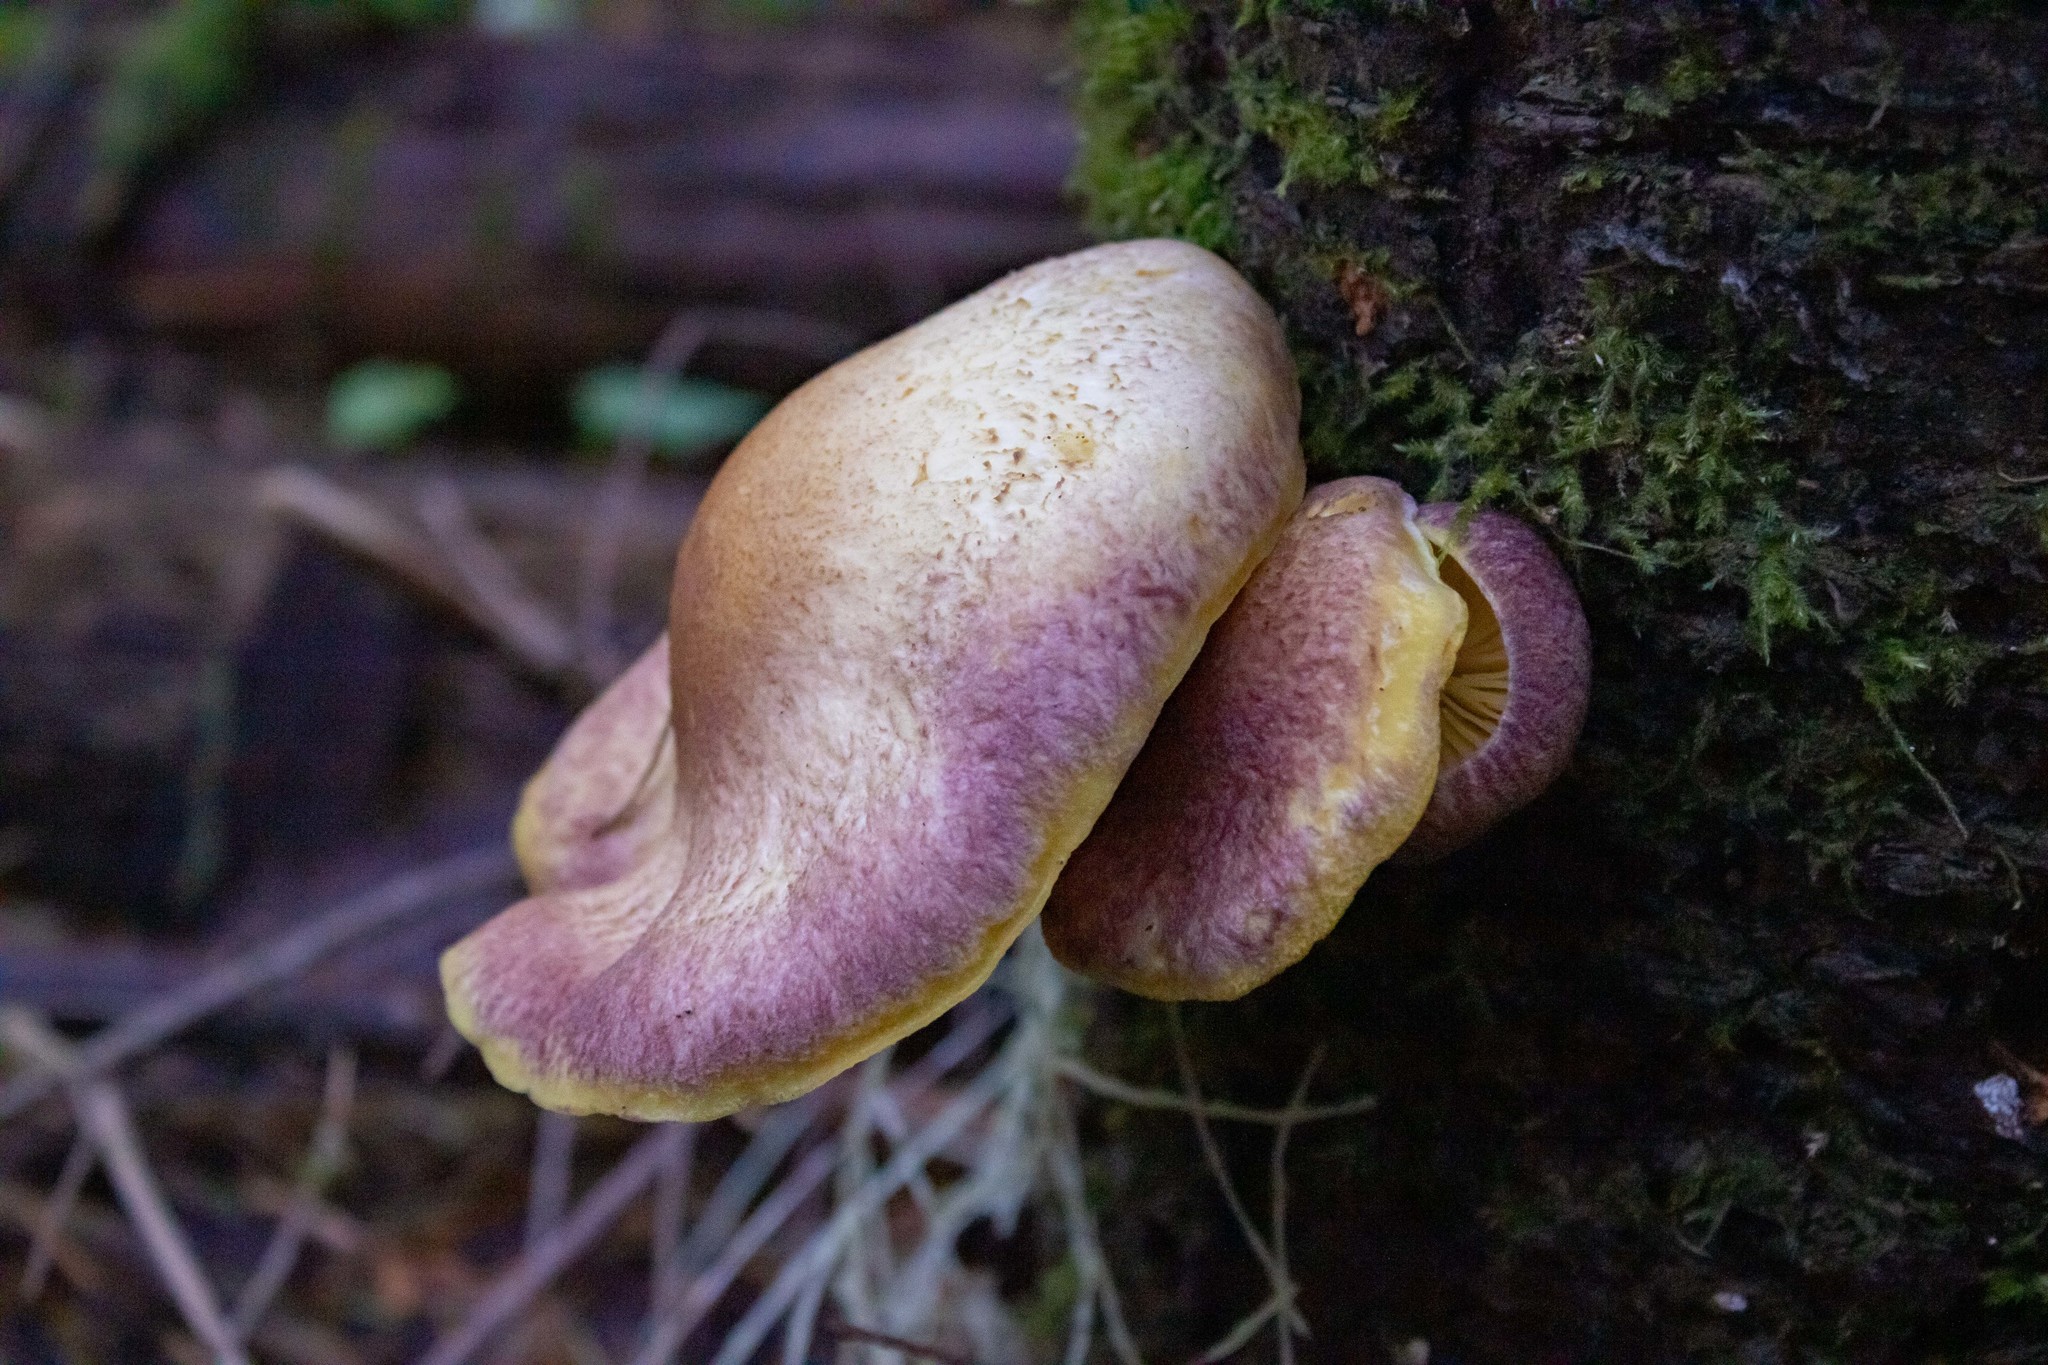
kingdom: Fungi
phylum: Basidiomycota
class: Agaricomycetes
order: Agaricales
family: Tricholomataceae
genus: Tricholomopsis
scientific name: Tricholomopsis rutilans
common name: Plums and custard
